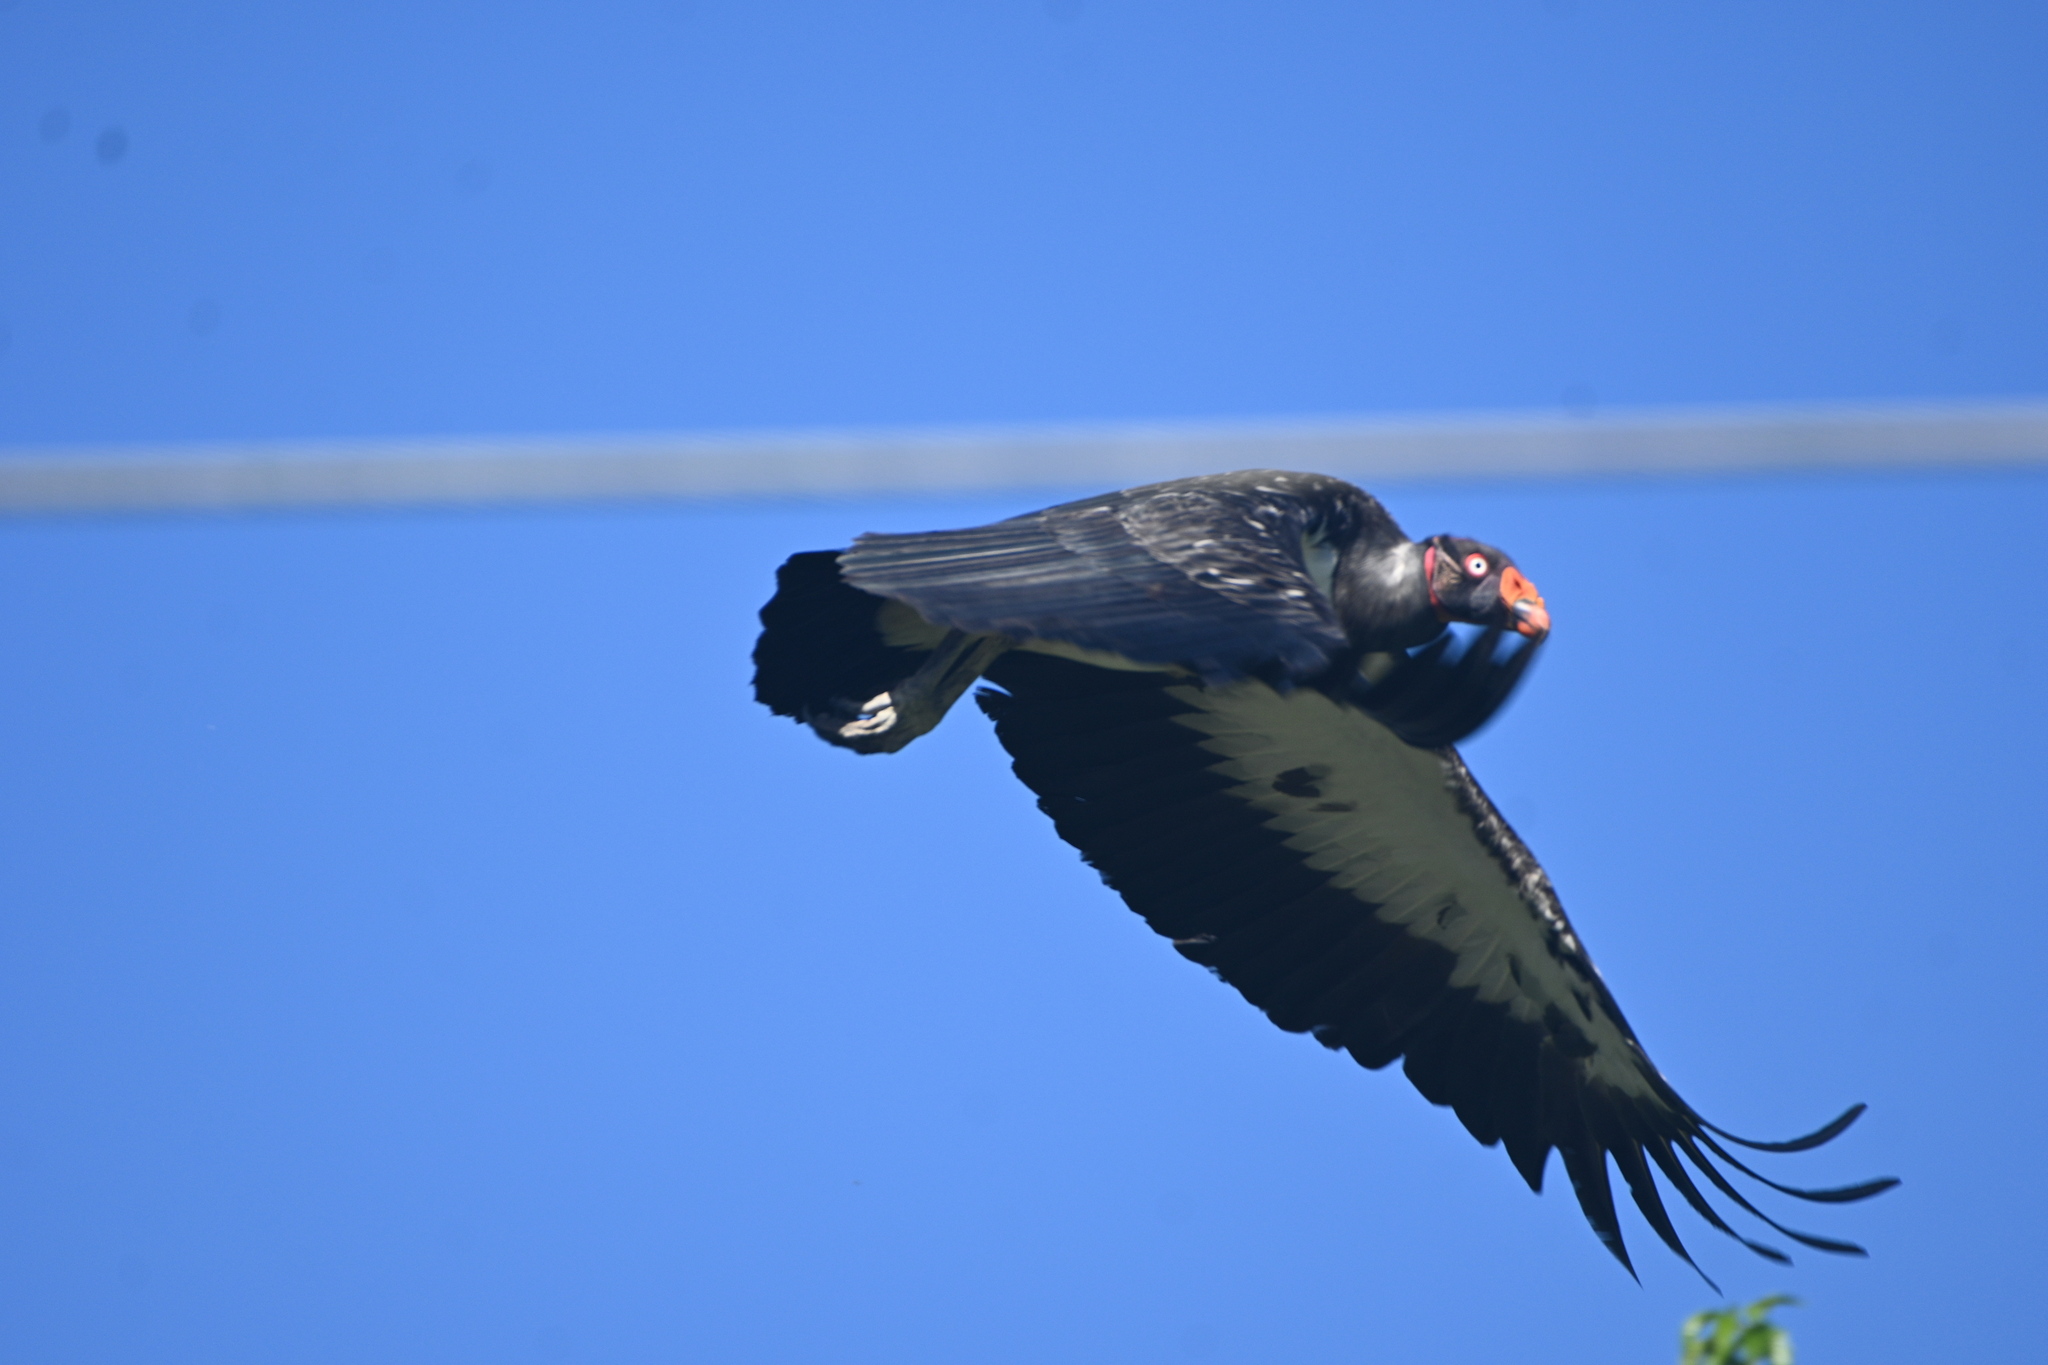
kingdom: Animalia
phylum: Chordata
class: Aves
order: Accipitriformes
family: Cathartidae
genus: Sarcoramphus
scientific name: Sarcoramphus papa
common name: King vulture
